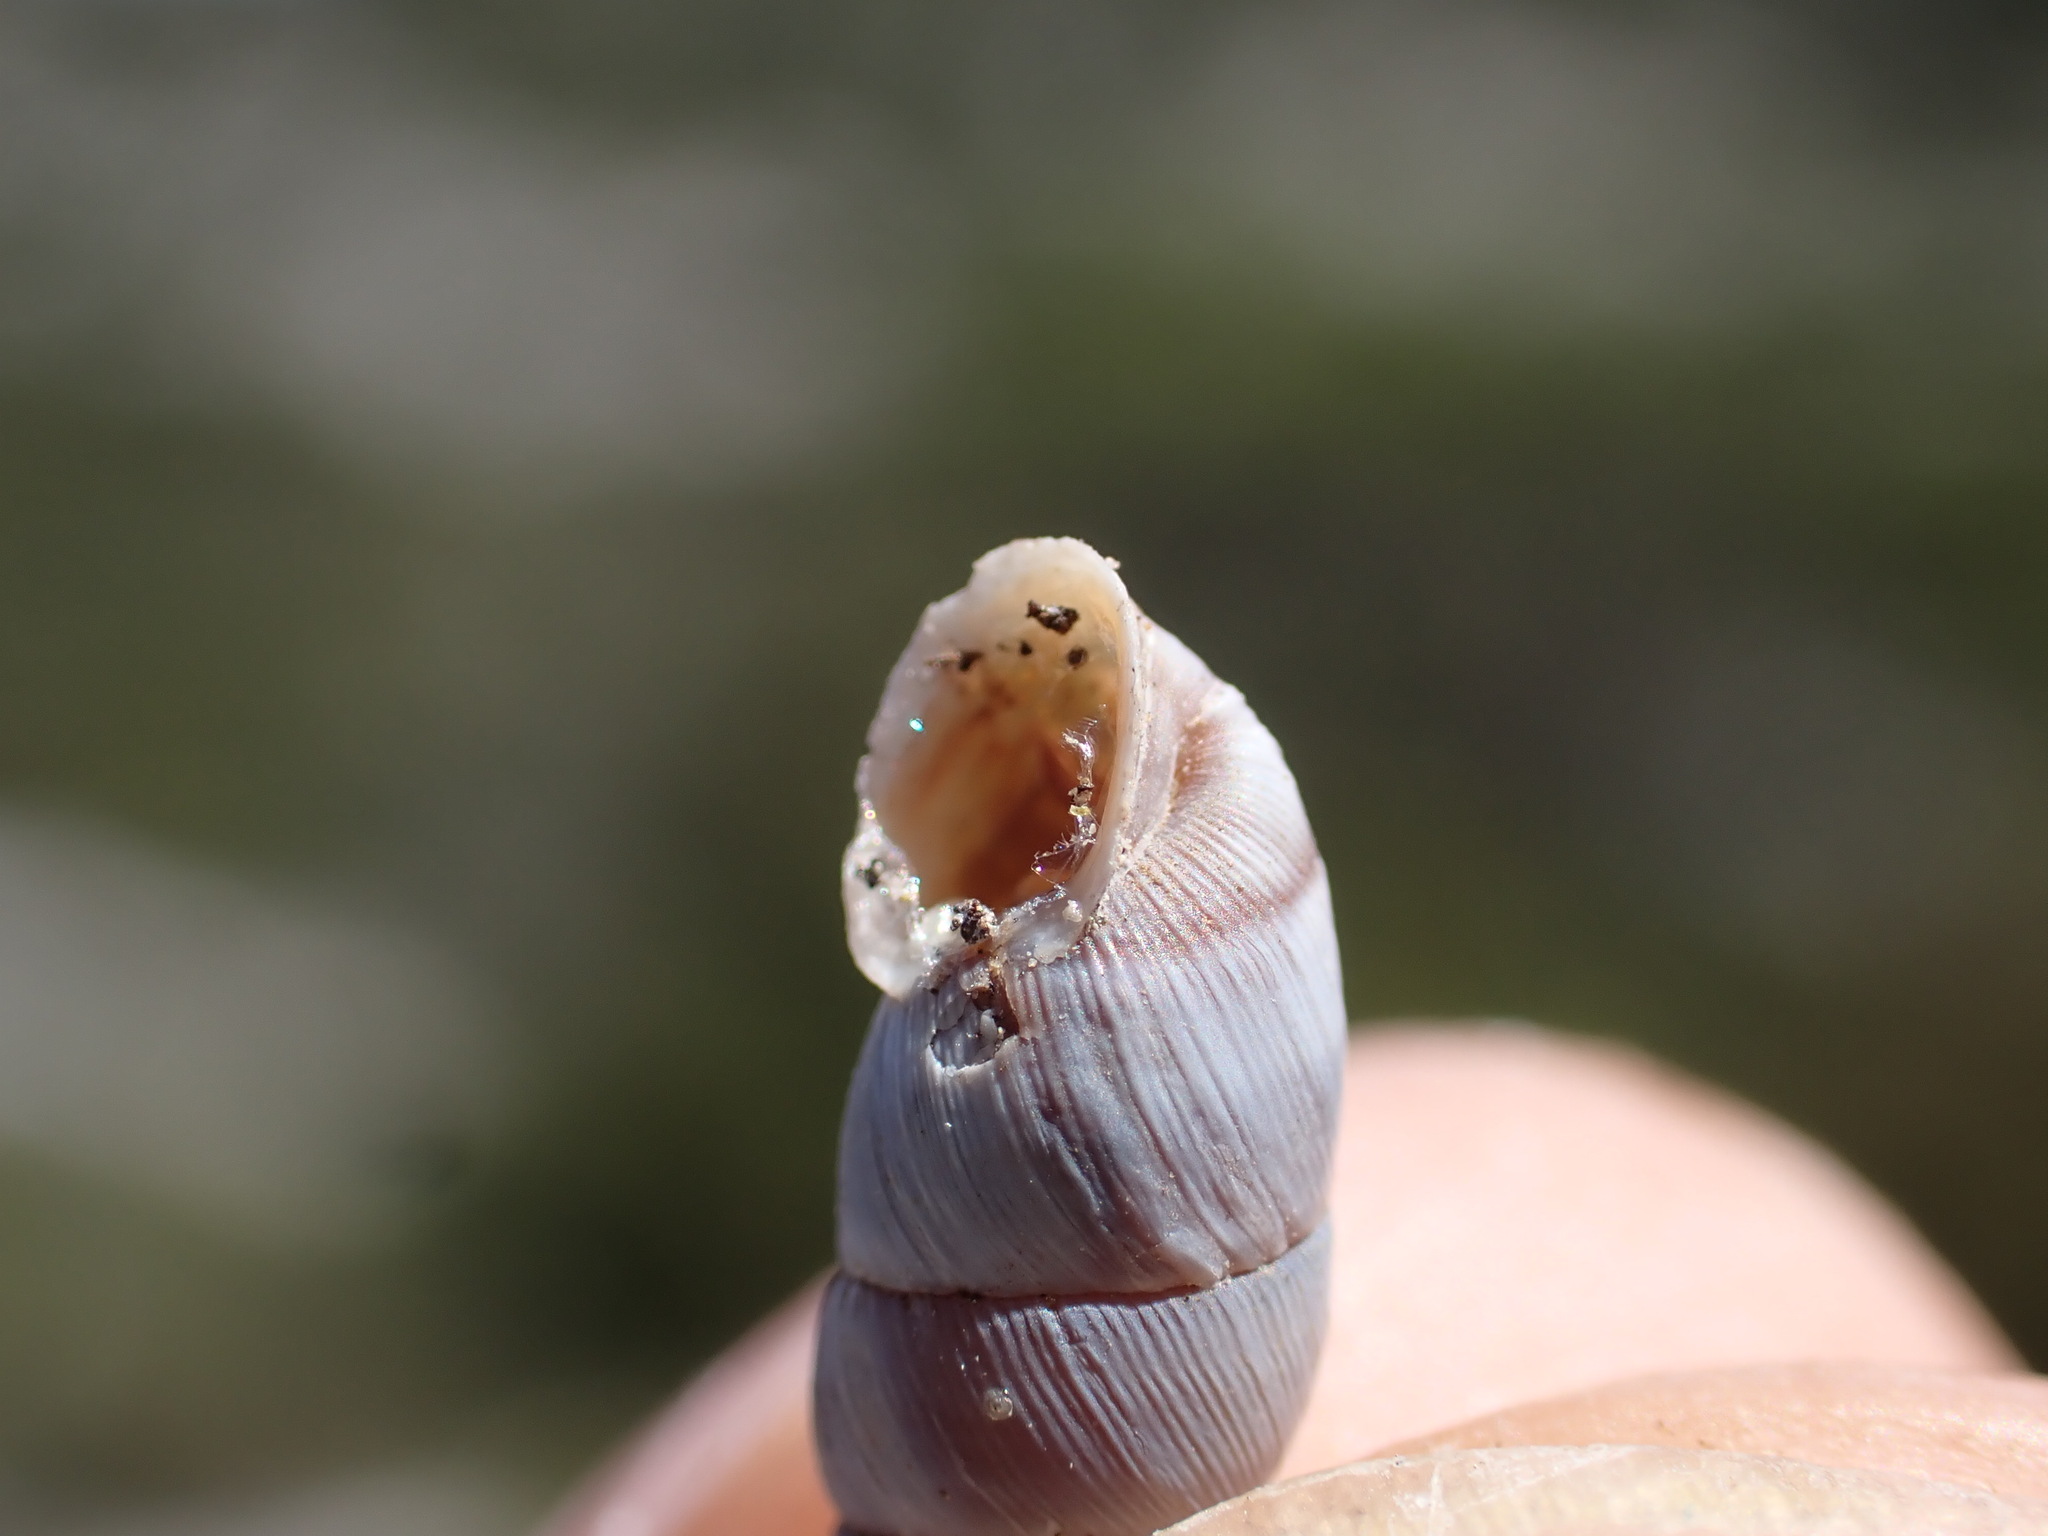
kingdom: Animalia
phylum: Mollusca
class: Gastropoda
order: Stylommatophora
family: Chondrinidae
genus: Solatopupa
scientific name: Solatopupa similis
